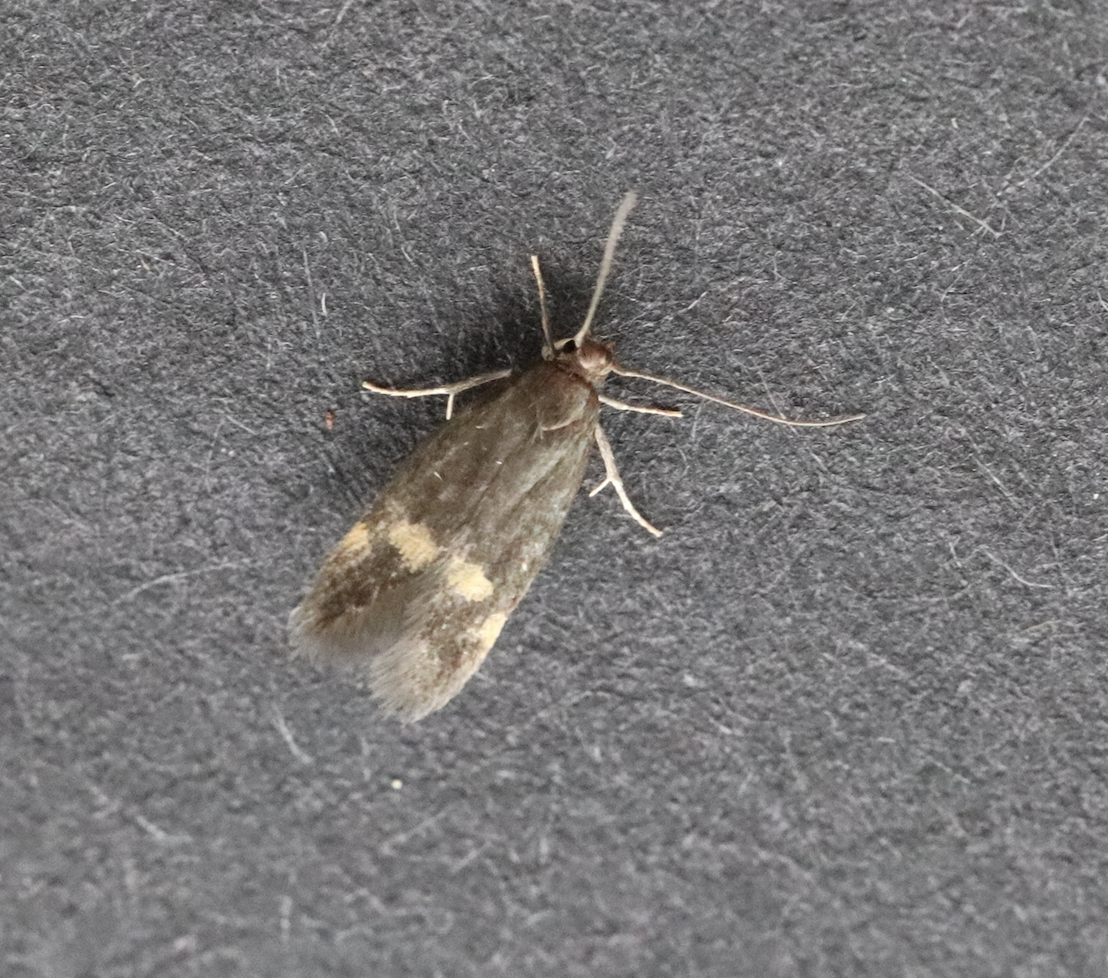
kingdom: Animalia
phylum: Arthropoda
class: Insecta
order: Lepidoptera
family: Oecophoridae
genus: Borkhausenia
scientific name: Borkhausenia minutella
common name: Thatch tubic
